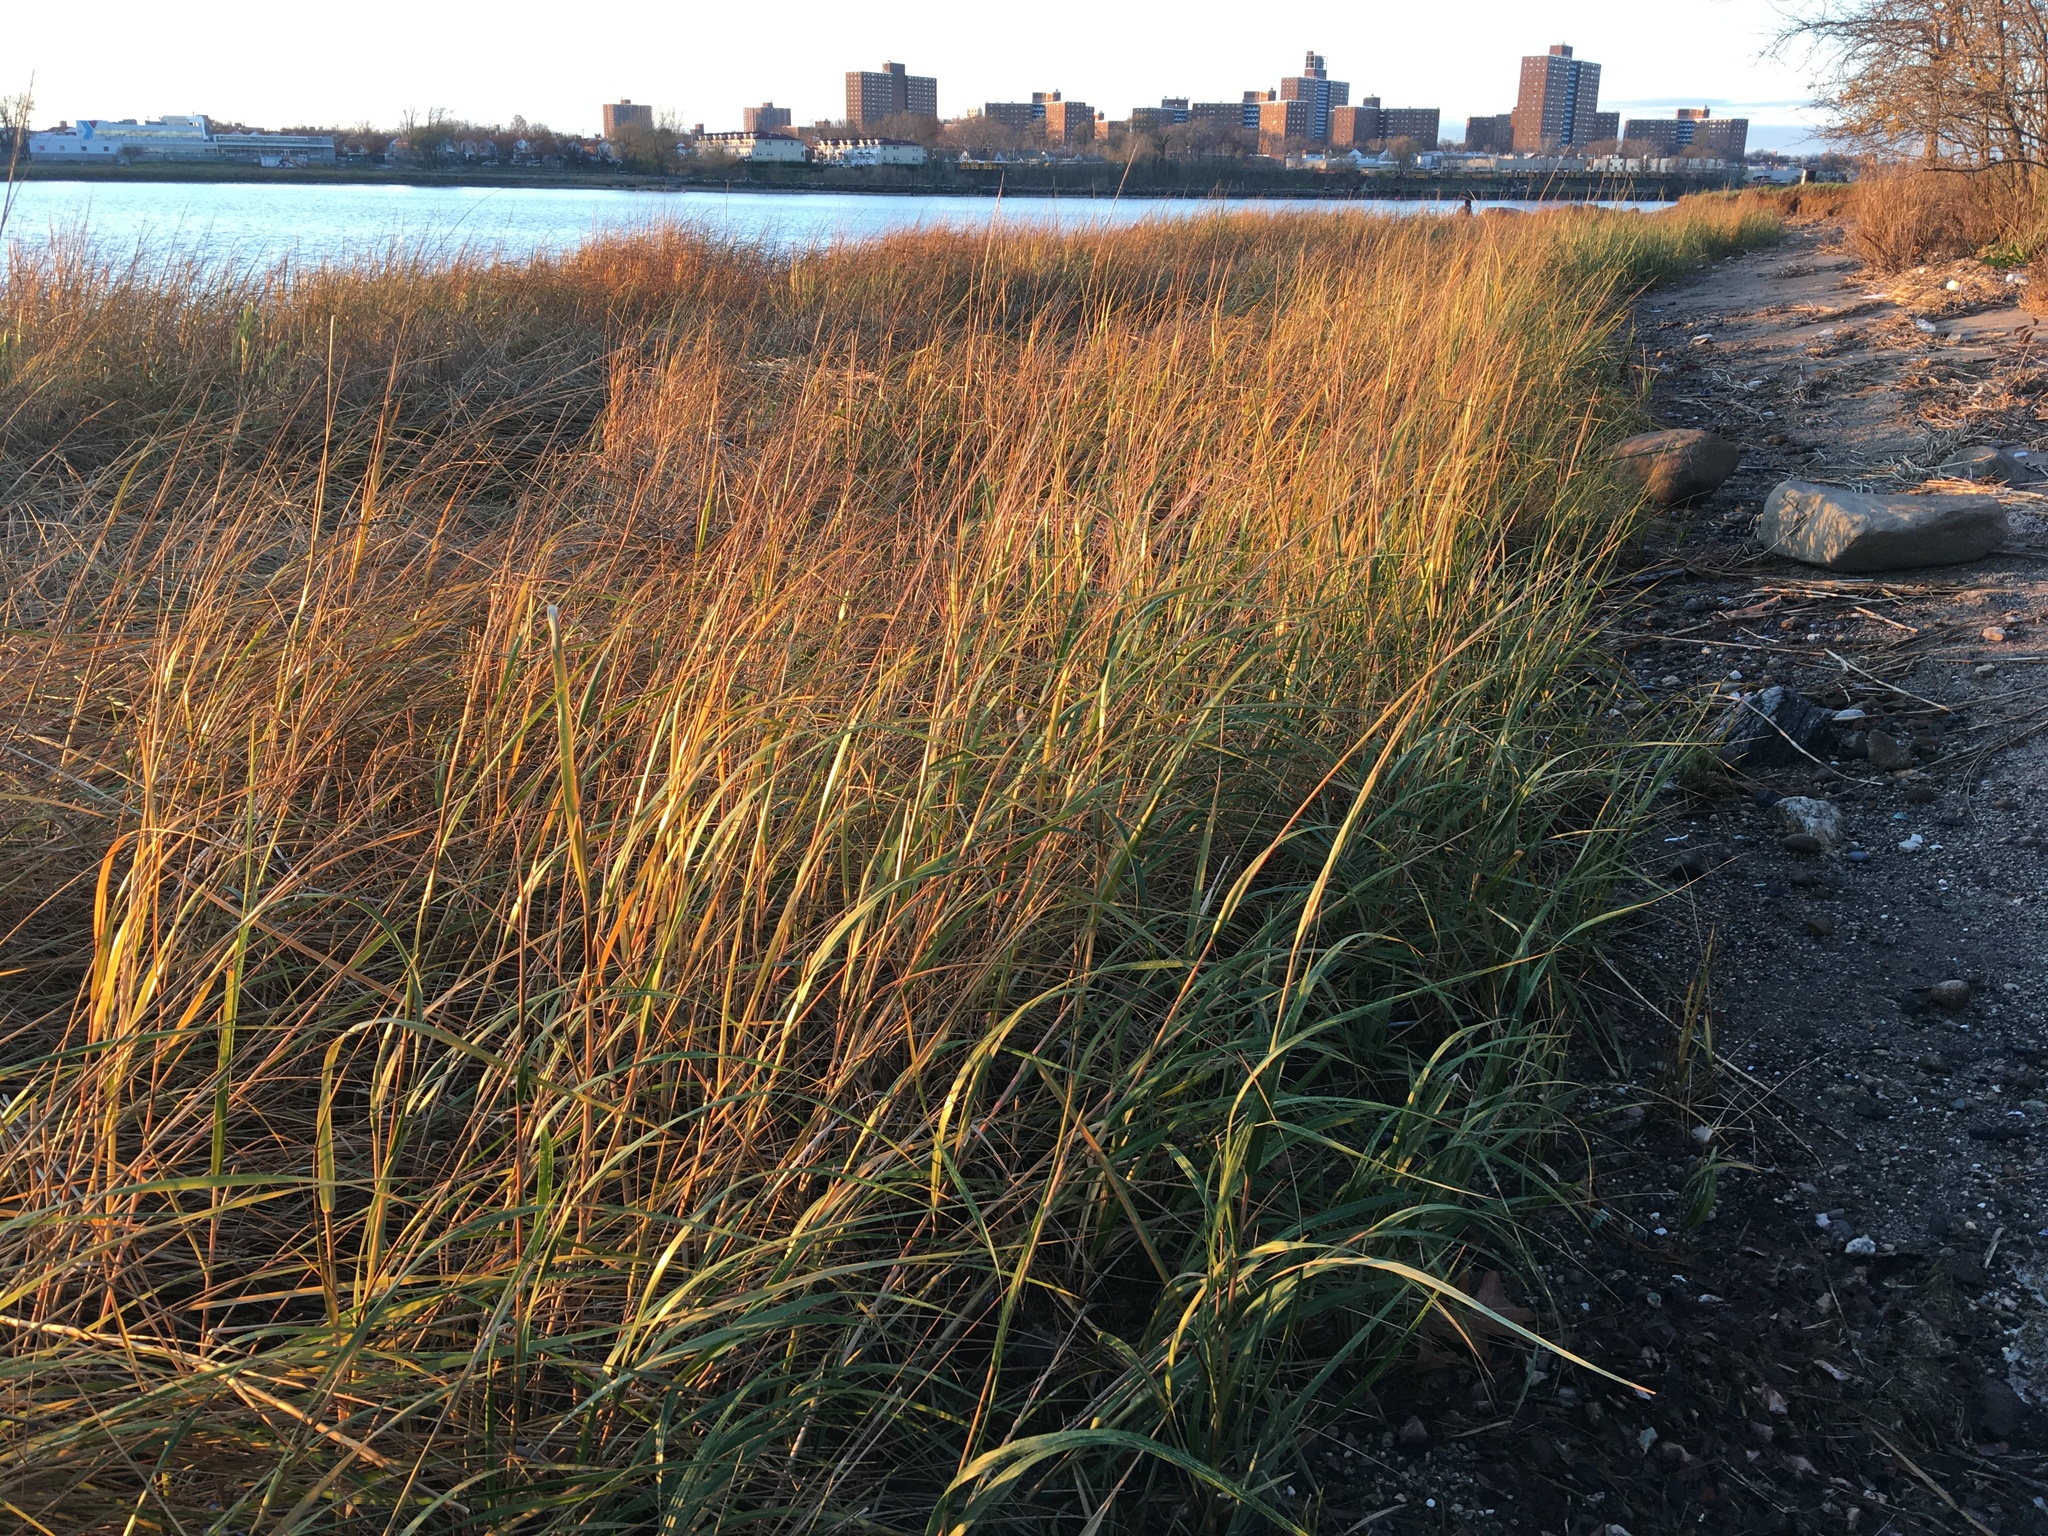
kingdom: Plantae
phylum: Tracheophyta
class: Liliopsida
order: Poales
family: Poaceae
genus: Sporobolus
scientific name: Sporobolus alterniflorus
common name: Atlantic cordgrass
